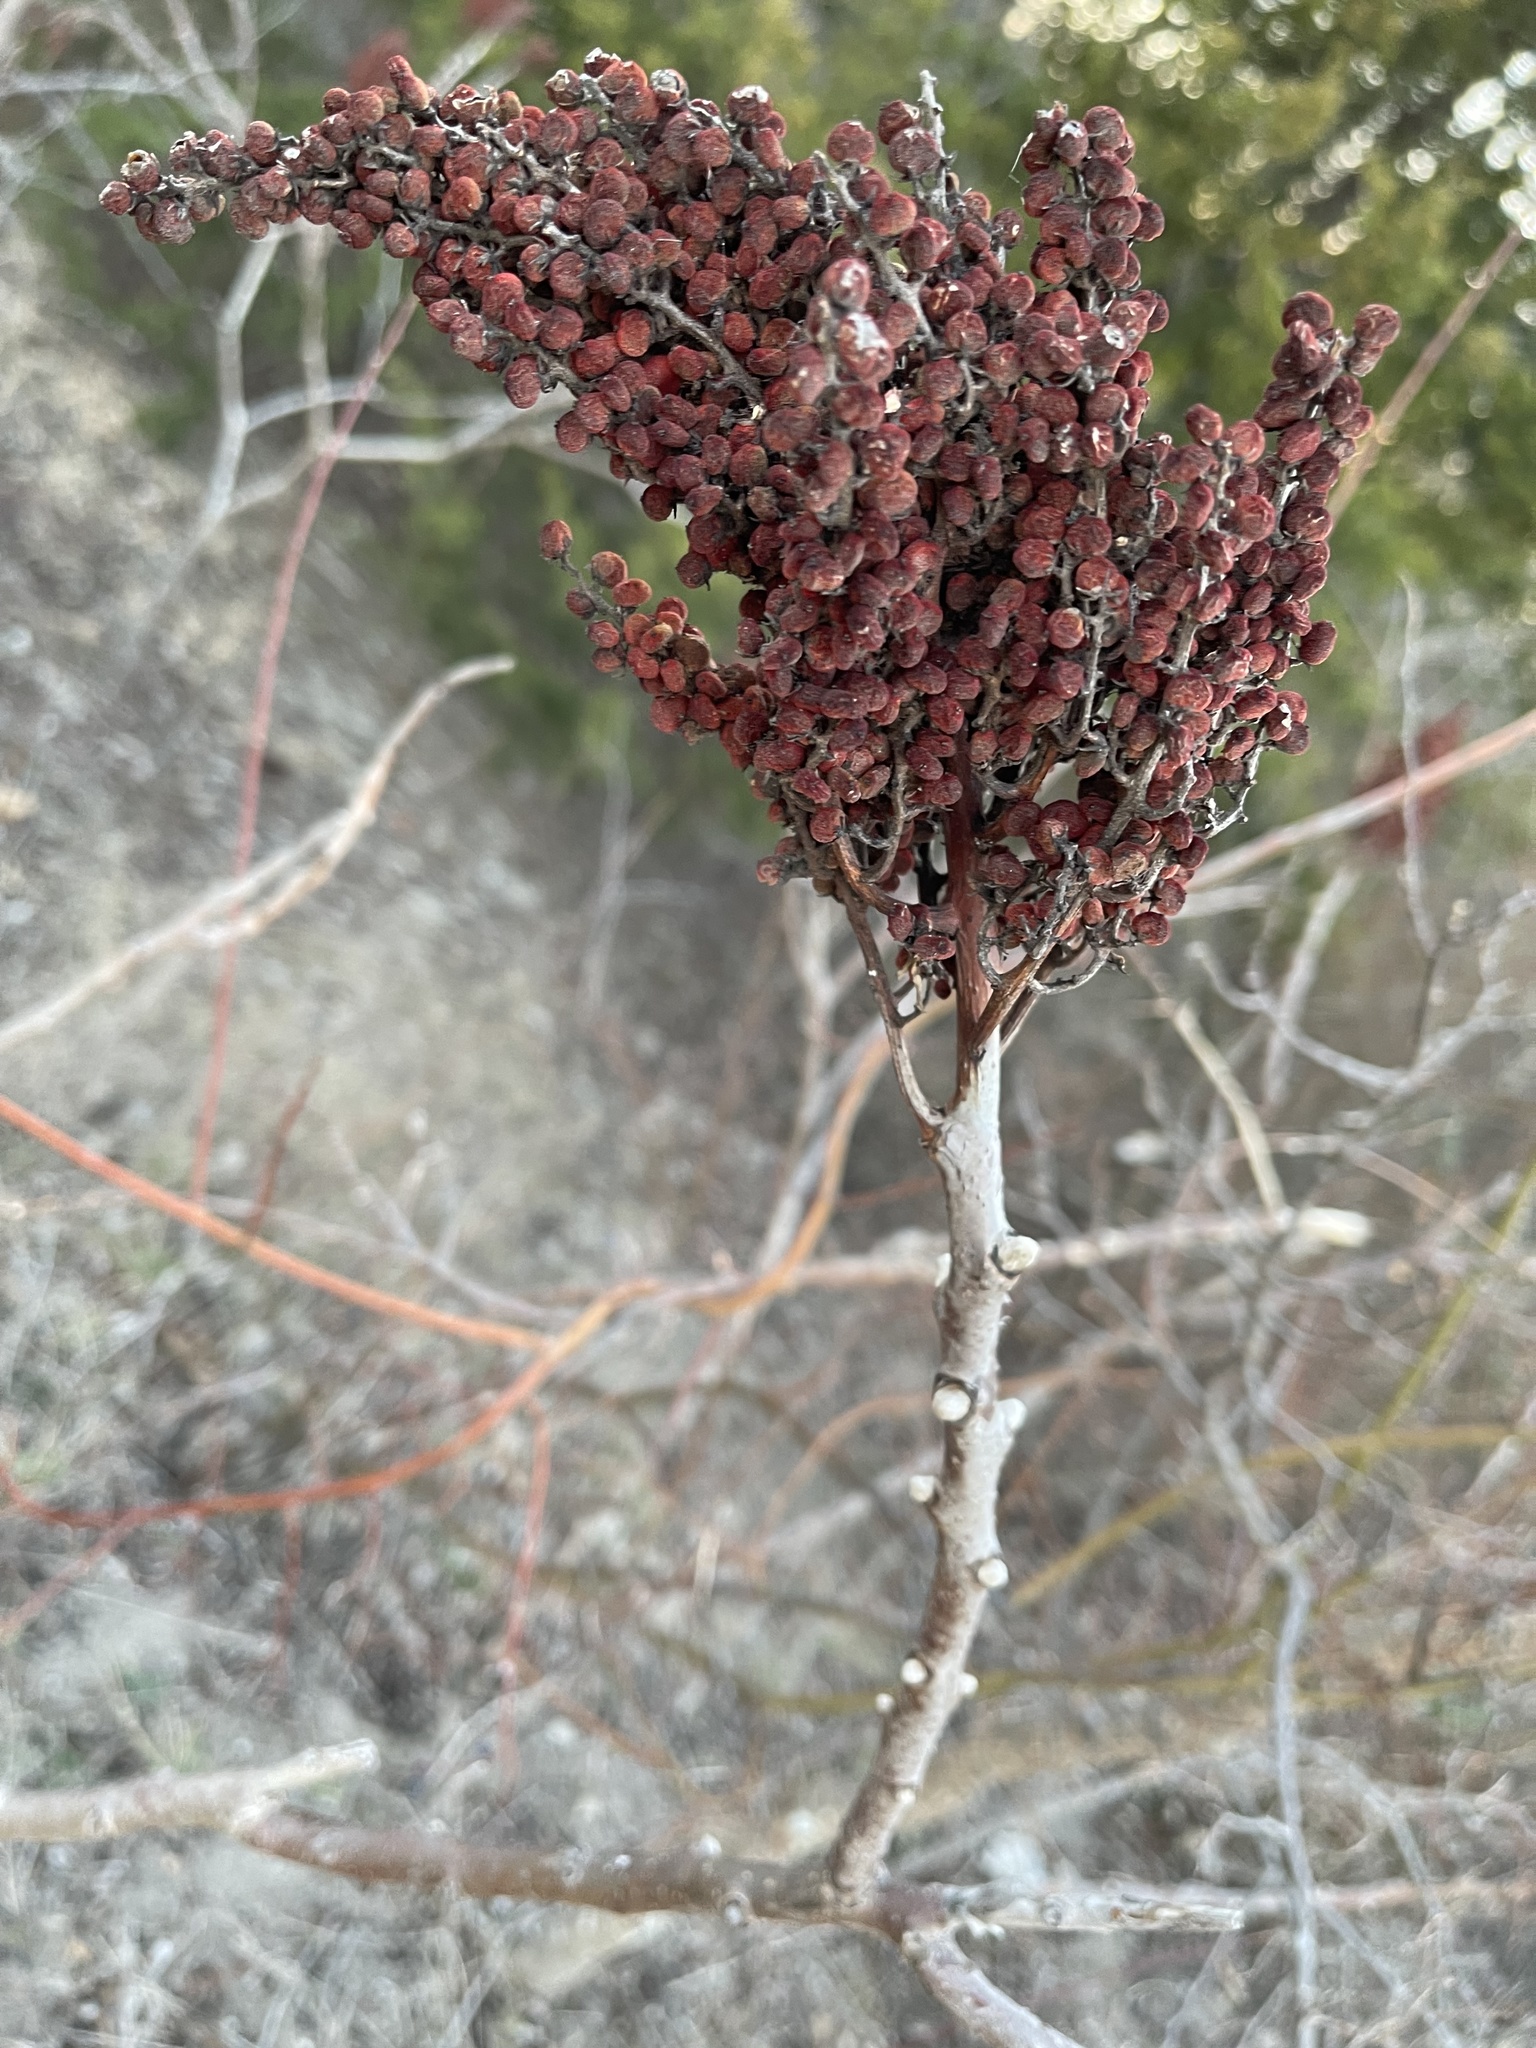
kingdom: Plantae
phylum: Tracheophyta
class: Magnoliopsida
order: Sapindales
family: Anacardiaceae
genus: Rhus
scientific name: Rhus glabra
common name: Scarlet sumac
